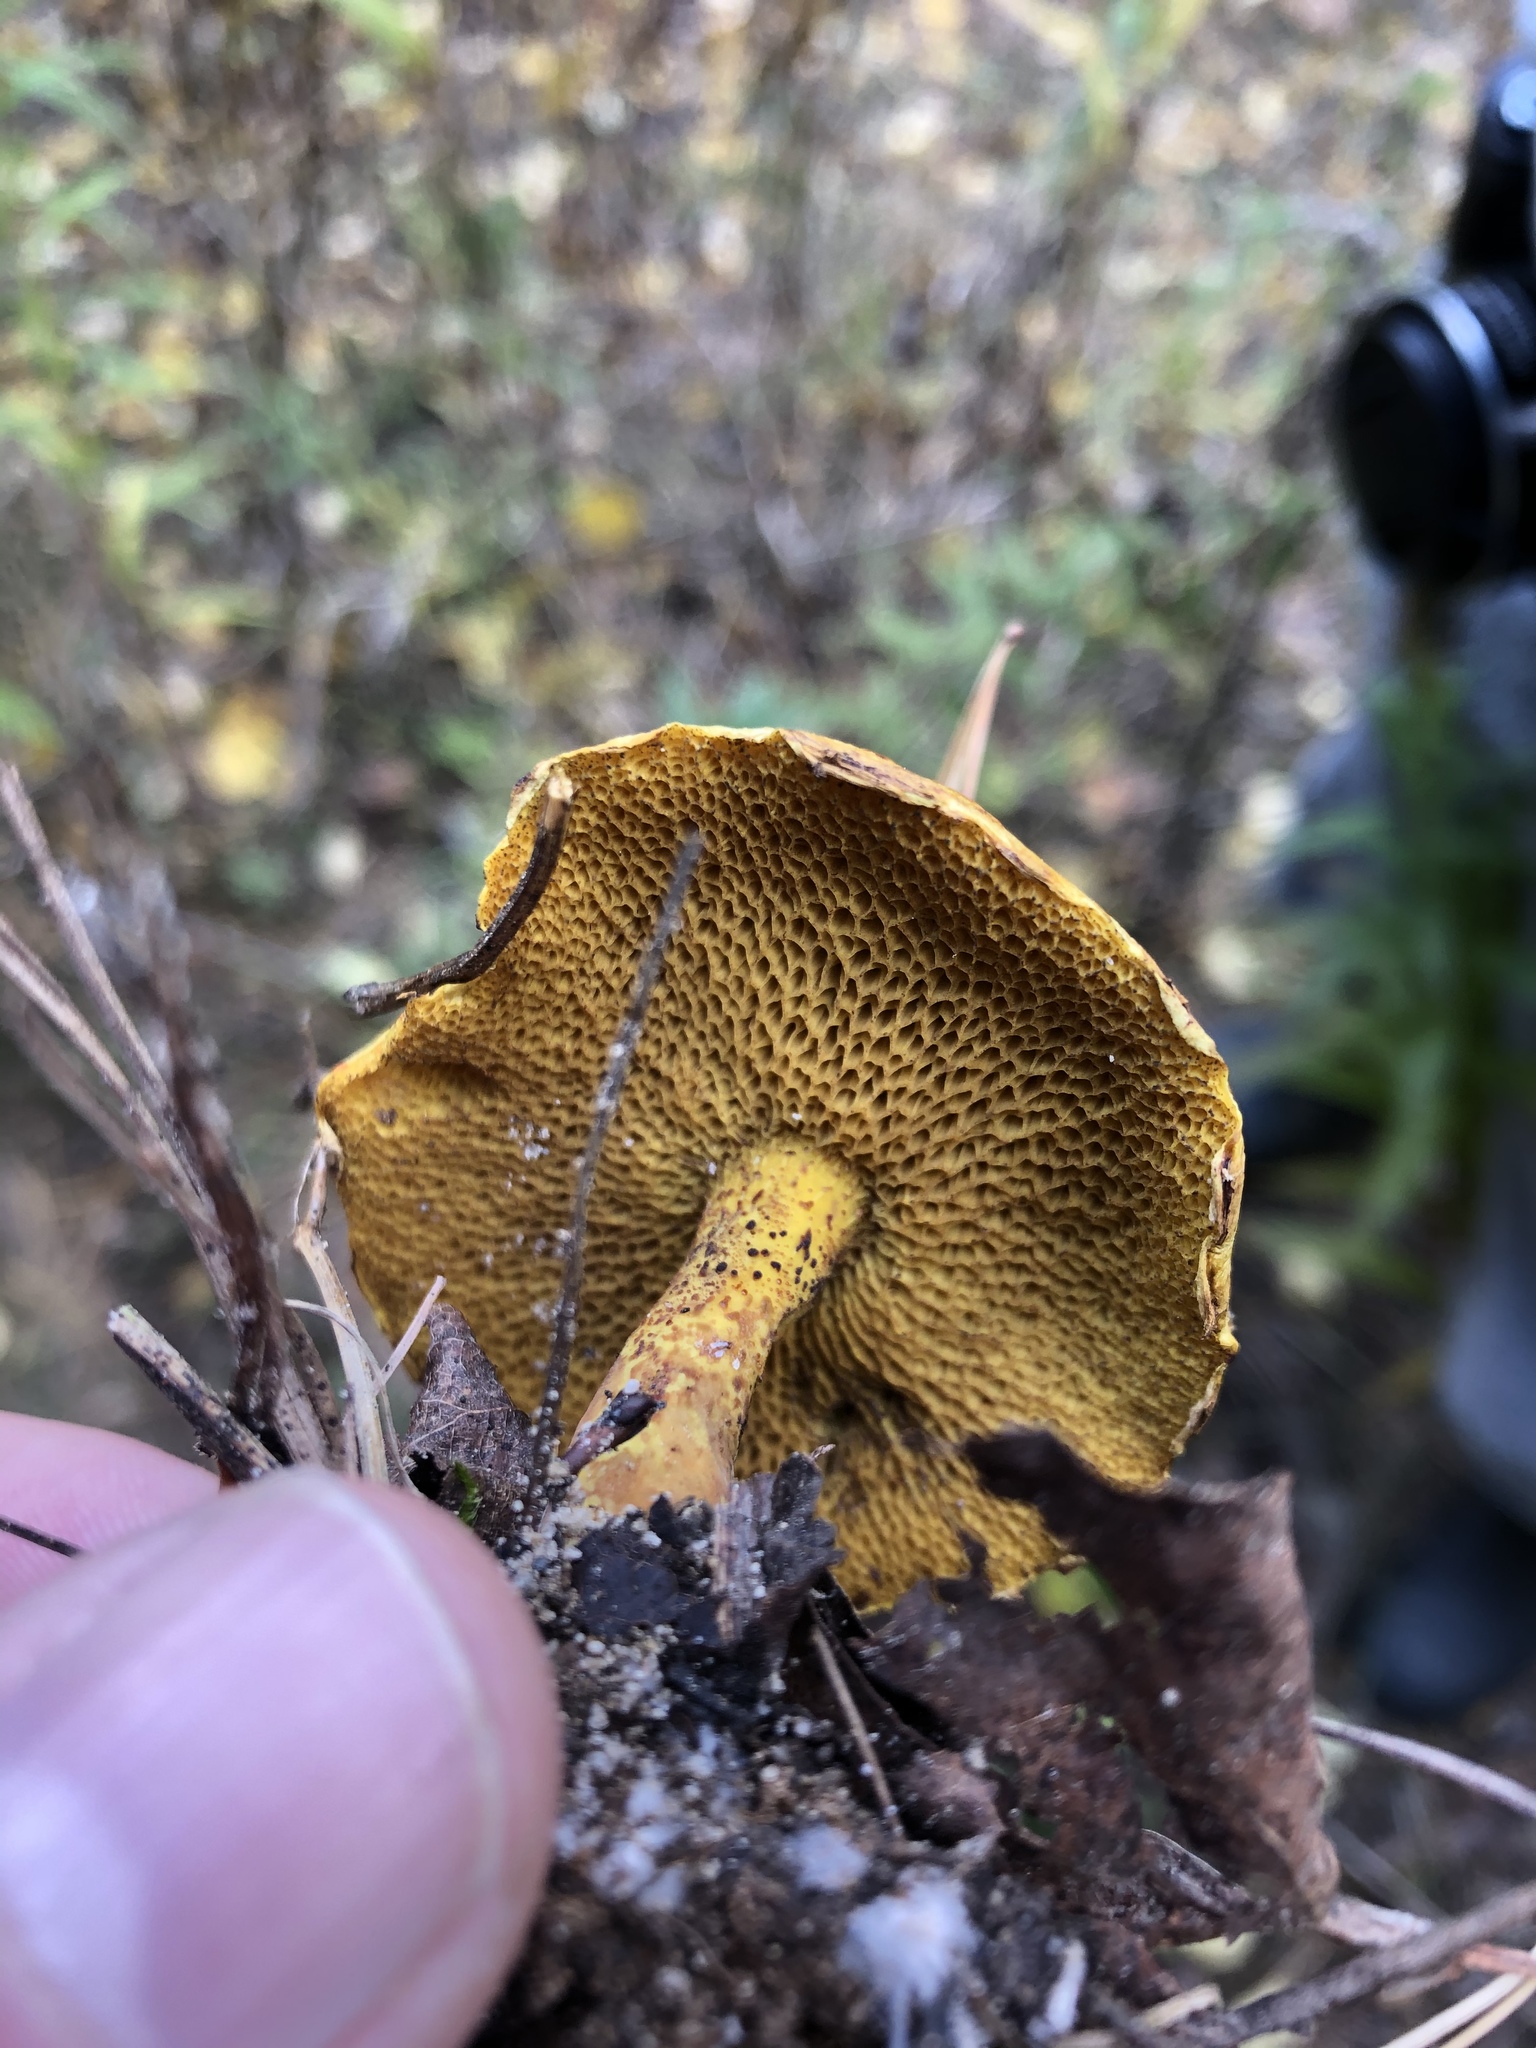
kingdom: Fungi
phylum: Basidiomycota
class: Agaricomycetes
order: Boletales
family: Suillaceae
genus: Suillus
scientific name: Suillus americanus
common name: Chicken fat mushroom
